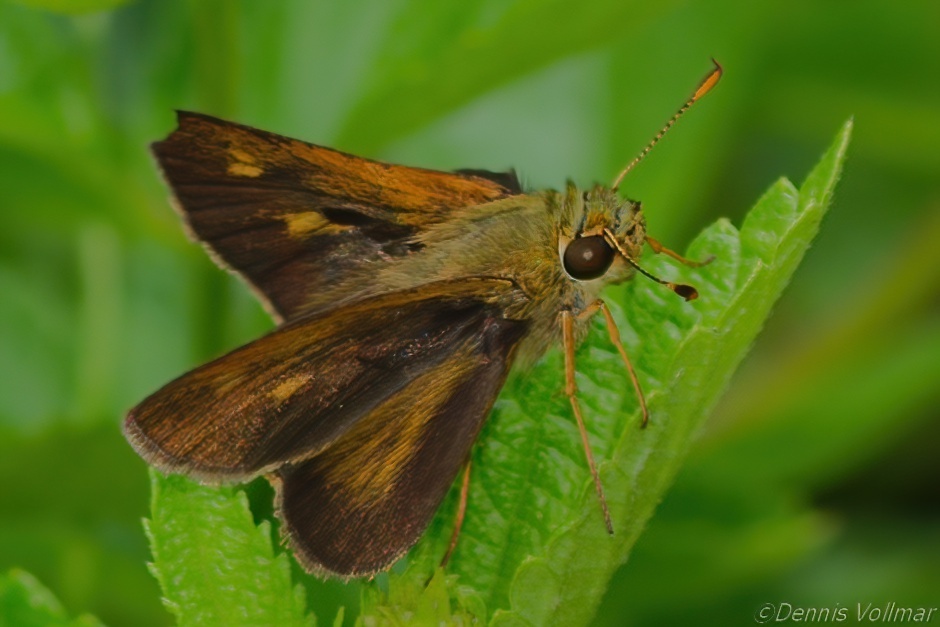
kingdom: Animalia
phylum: Arthropoda
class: Insecta
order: Lepidoptera
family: Hesperiidae
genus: Polites
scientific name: Polites egeremet
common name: Northern broken-dash
